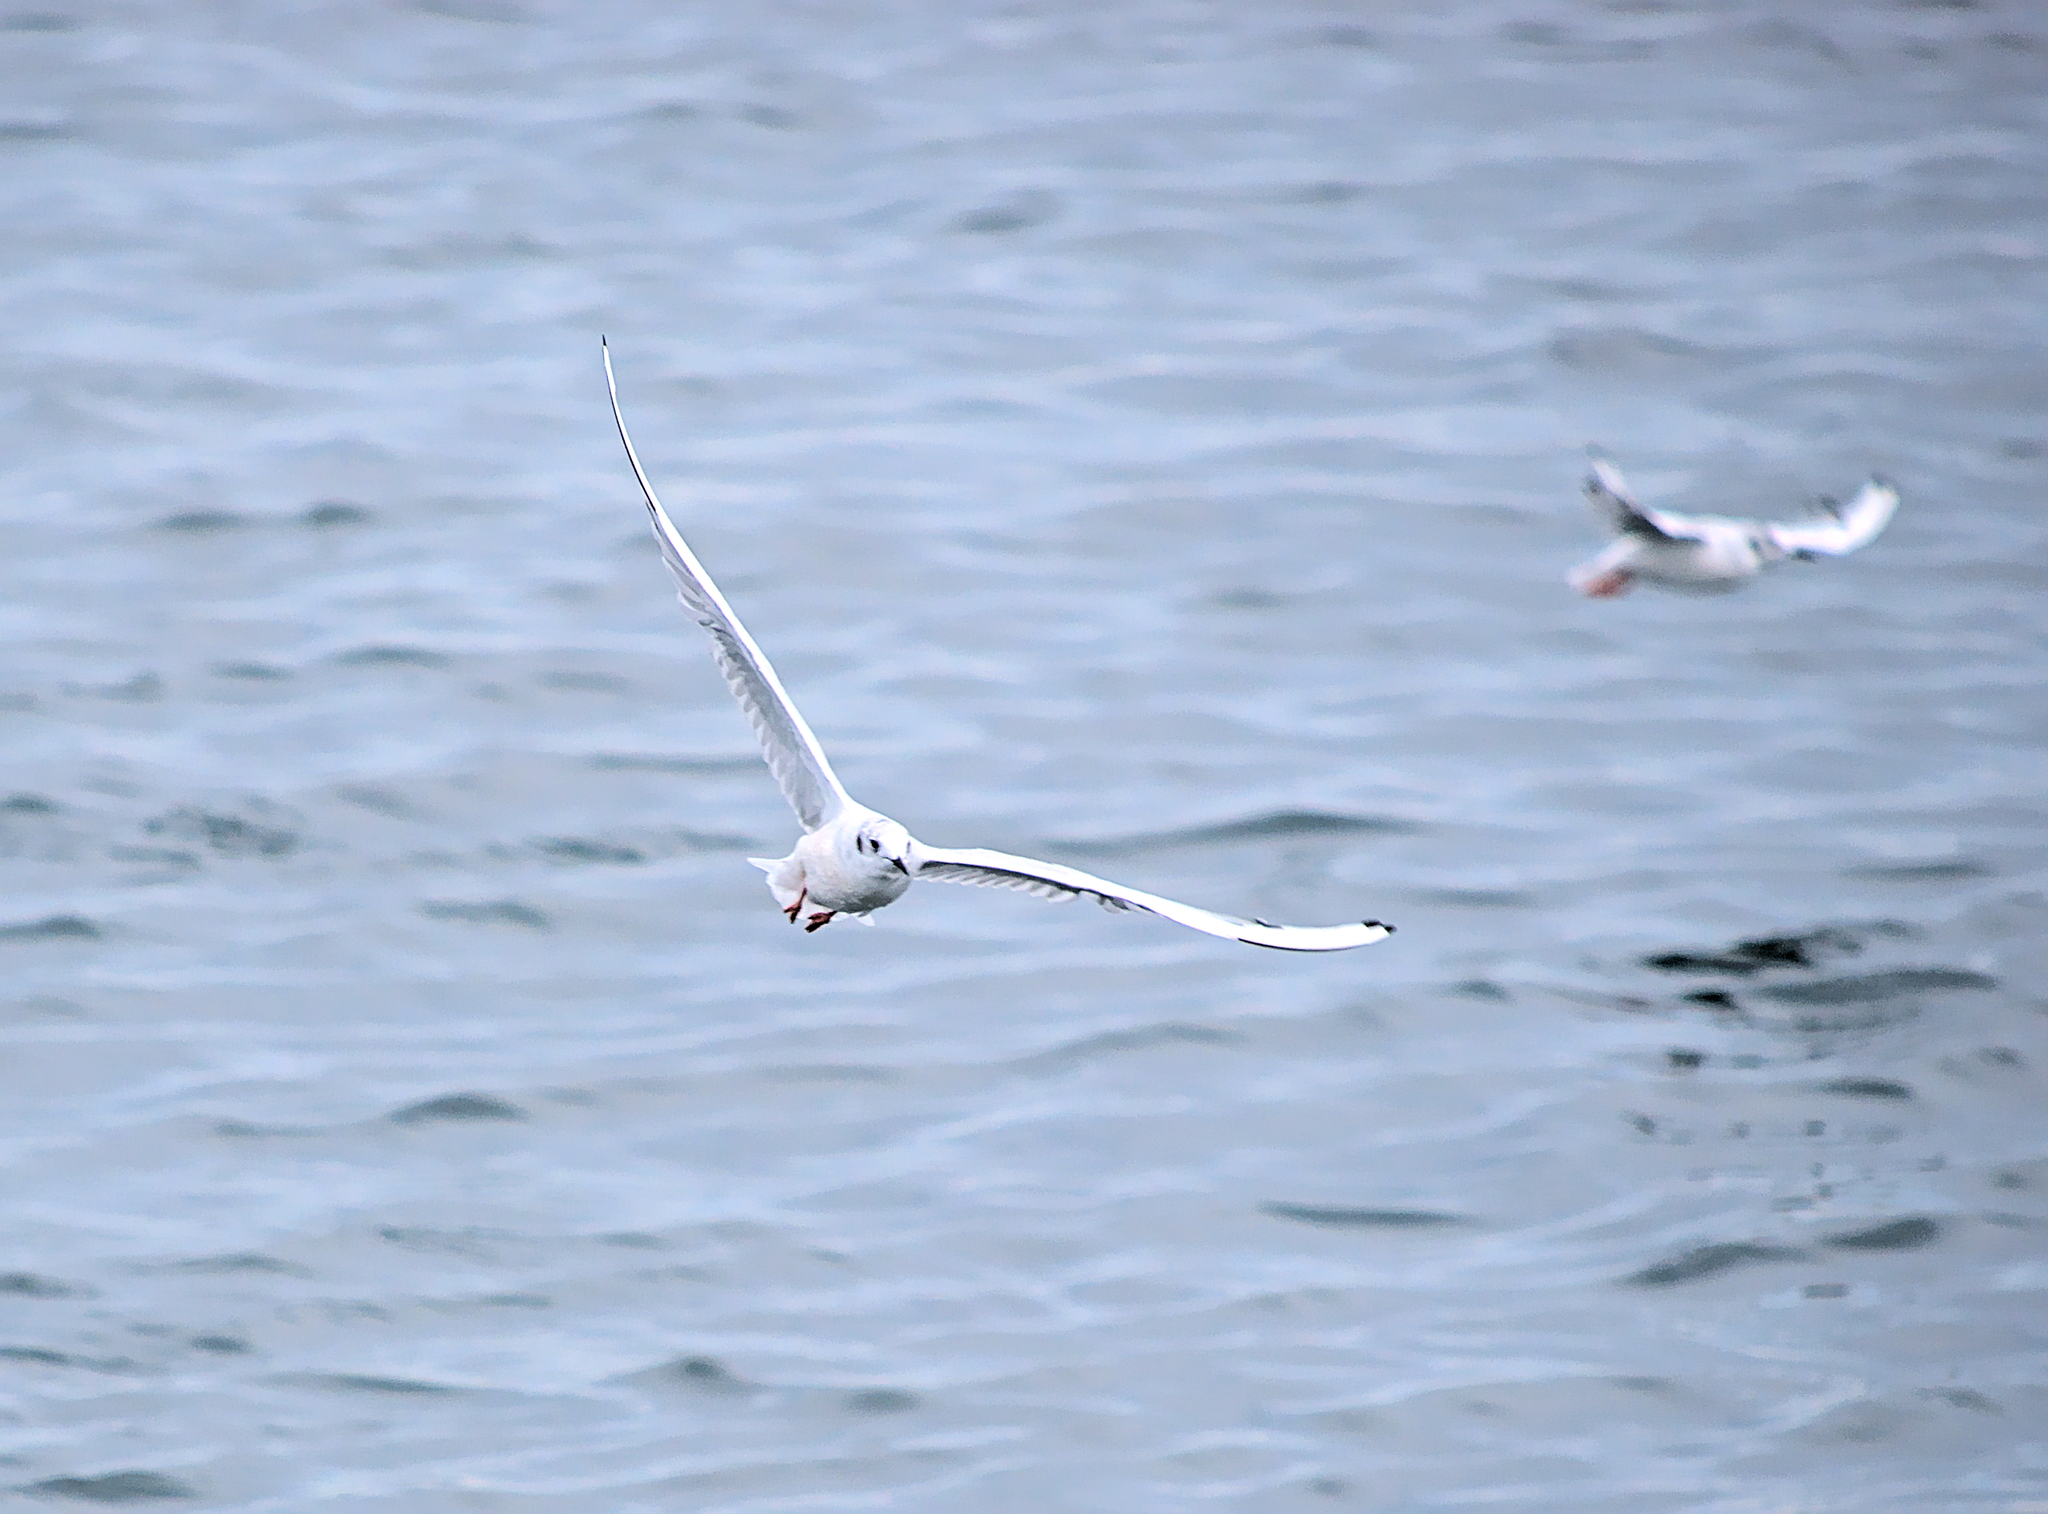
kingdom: Animalia
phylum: Chordata
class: Aves
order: Charadriiformes
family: Laridae
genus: Chroicocephalus
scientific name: Chroicocephalus philadelphia
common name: Bonaparte's gull
